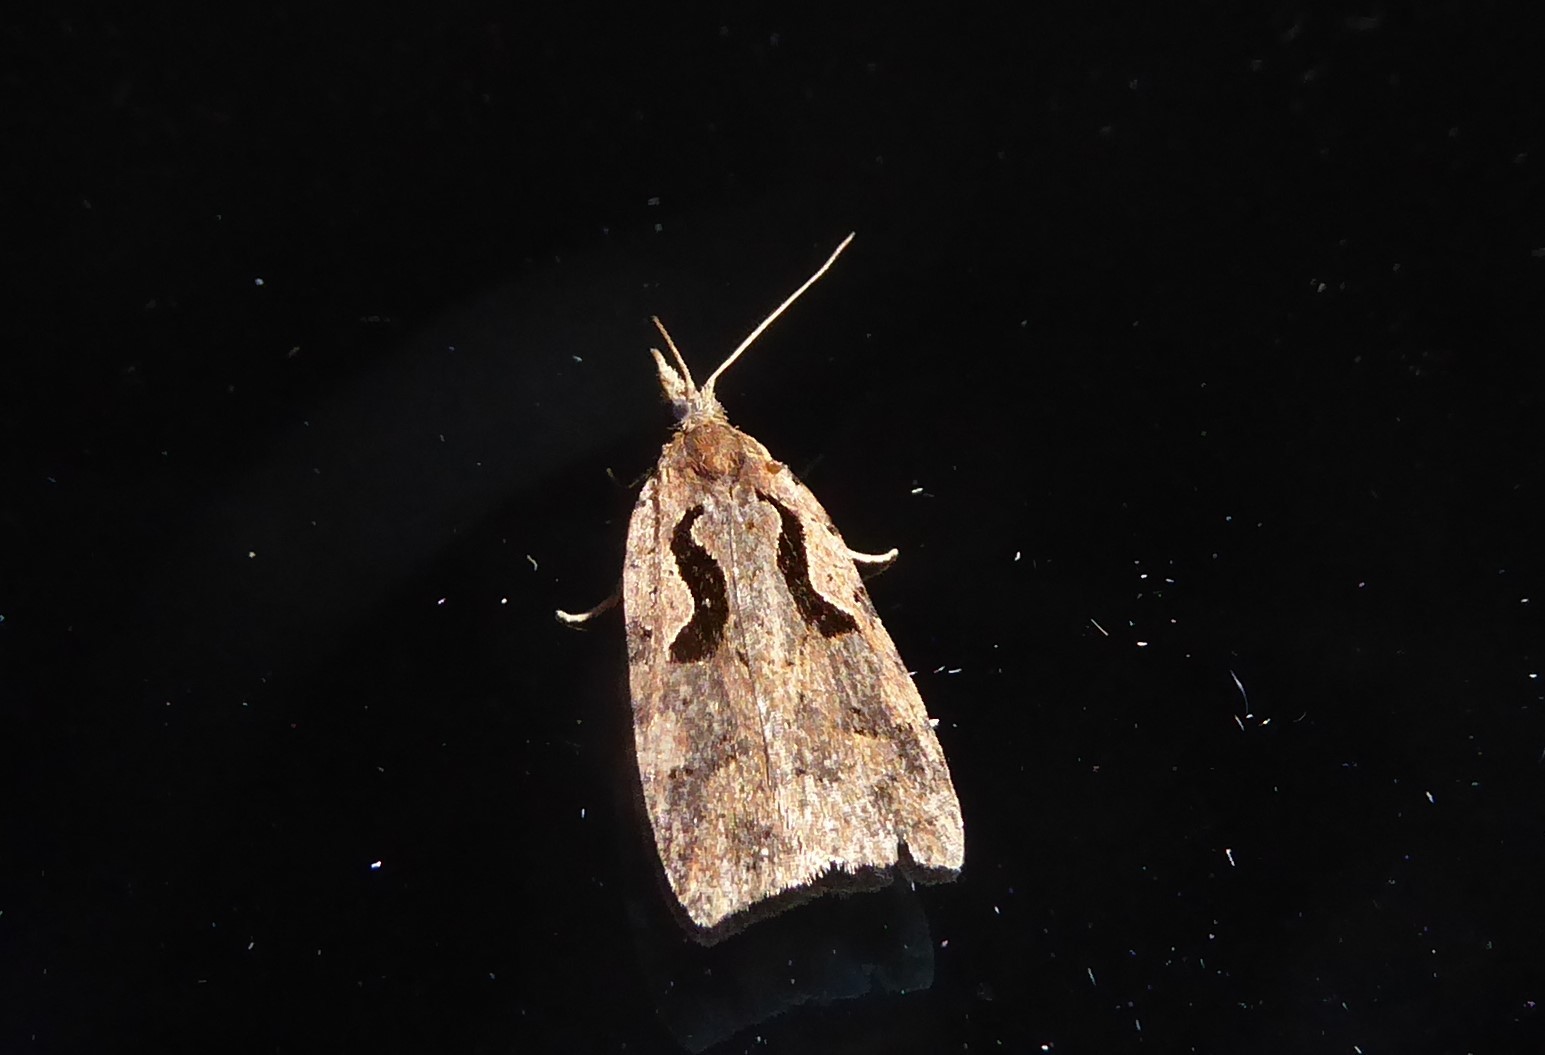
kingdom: Animalia
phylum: Arthropoda
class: Insecta
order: Lepidoptera
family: Tortricidae
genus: Cnephasia
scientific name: Cnephasia jactatana
